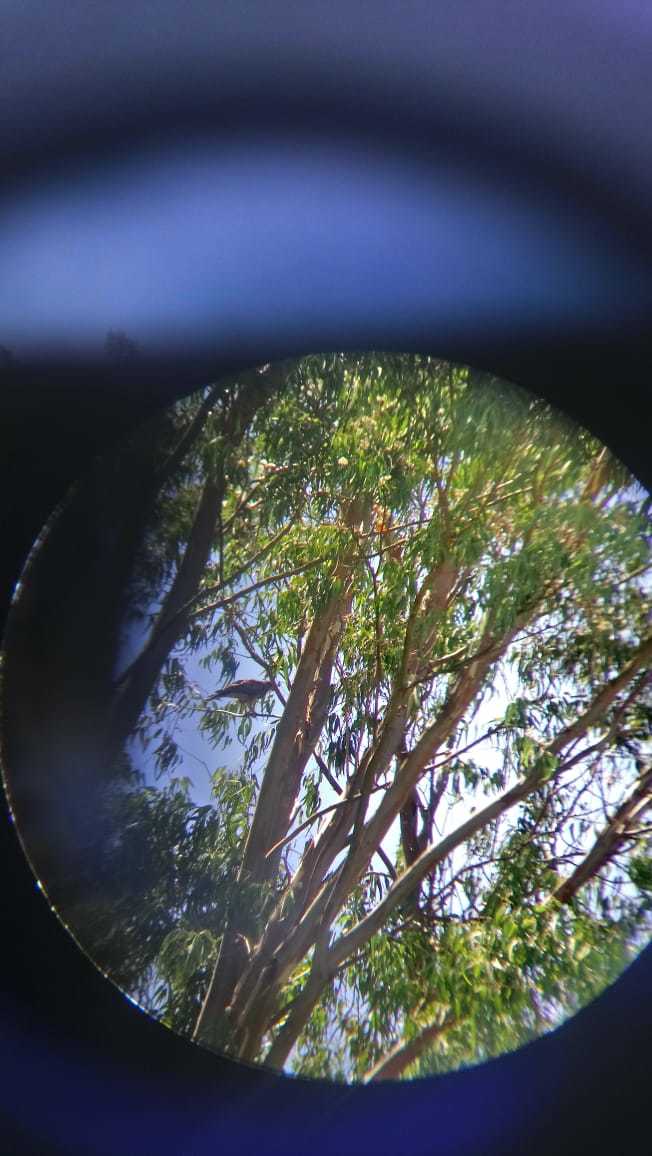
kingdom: Animalia
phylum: Chordata
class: Aves
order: Accipitriformes
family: Accipitridae
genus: Parabuteo
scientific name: Parabuteo unicinctus
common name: Harris's hawk
